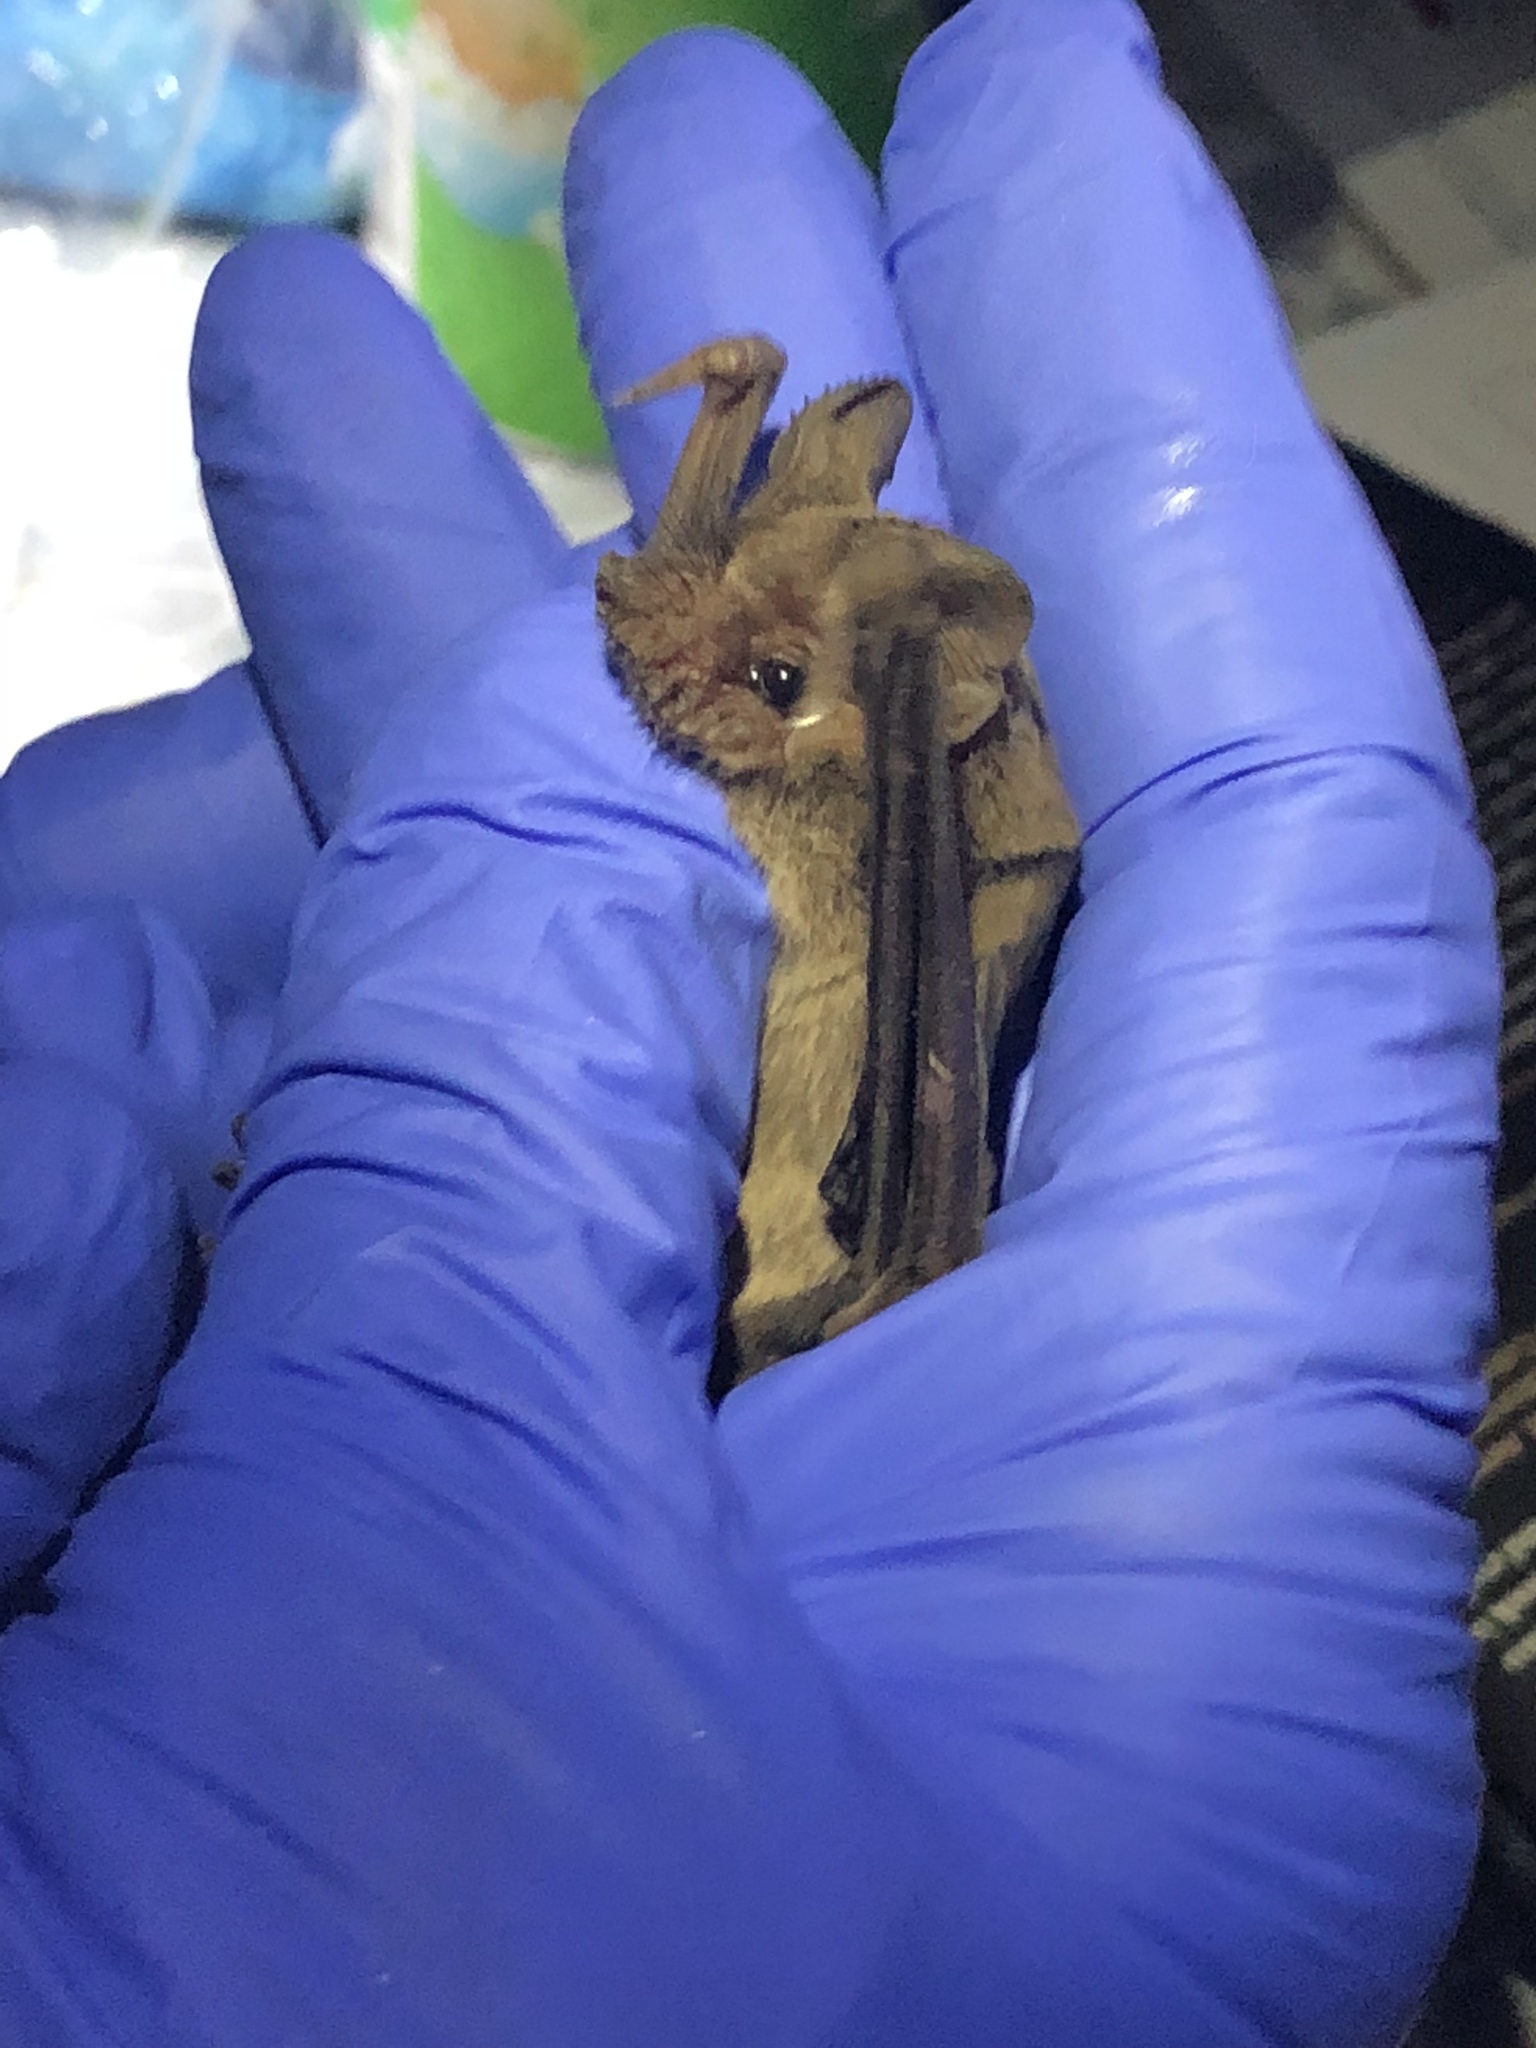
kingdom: Animalia
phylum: Chordata
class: Mammalia
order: Chiroptera
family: Molossidae
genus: Tadarida
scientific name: Tadarida brasiliensis
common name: Mexican free-tailed bat
